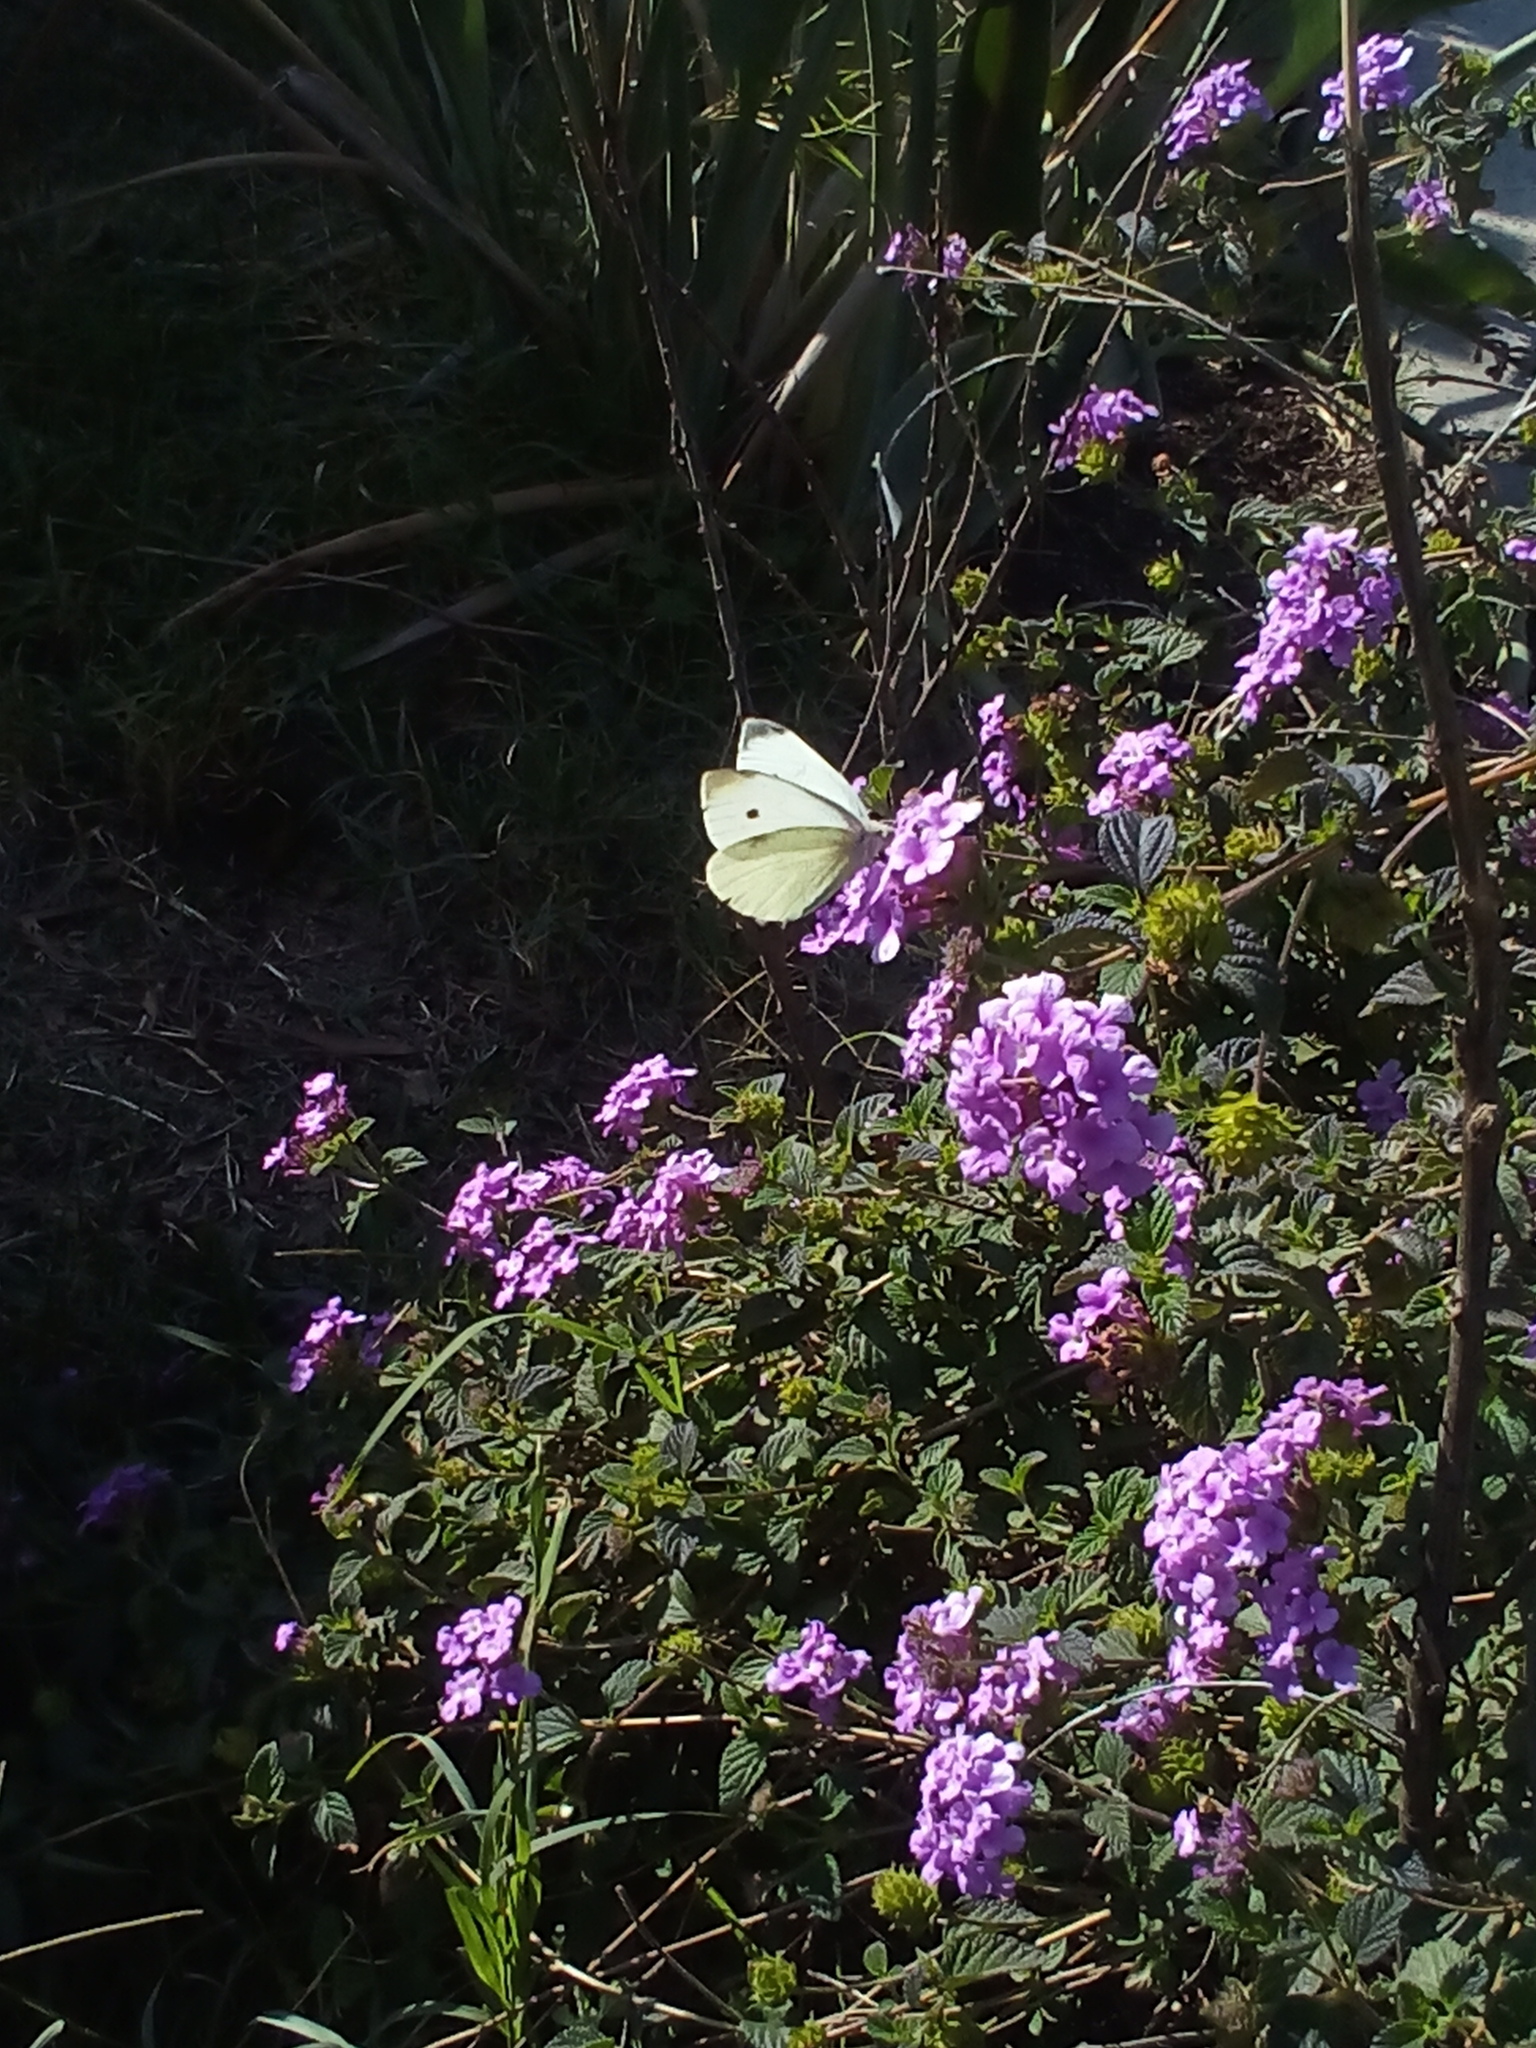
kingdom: Animalia
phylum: Arthropoda
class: Insecta
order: Lepidoptera
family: Pieridae
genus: Pieris
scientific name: Pieris rapae
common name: Small white
